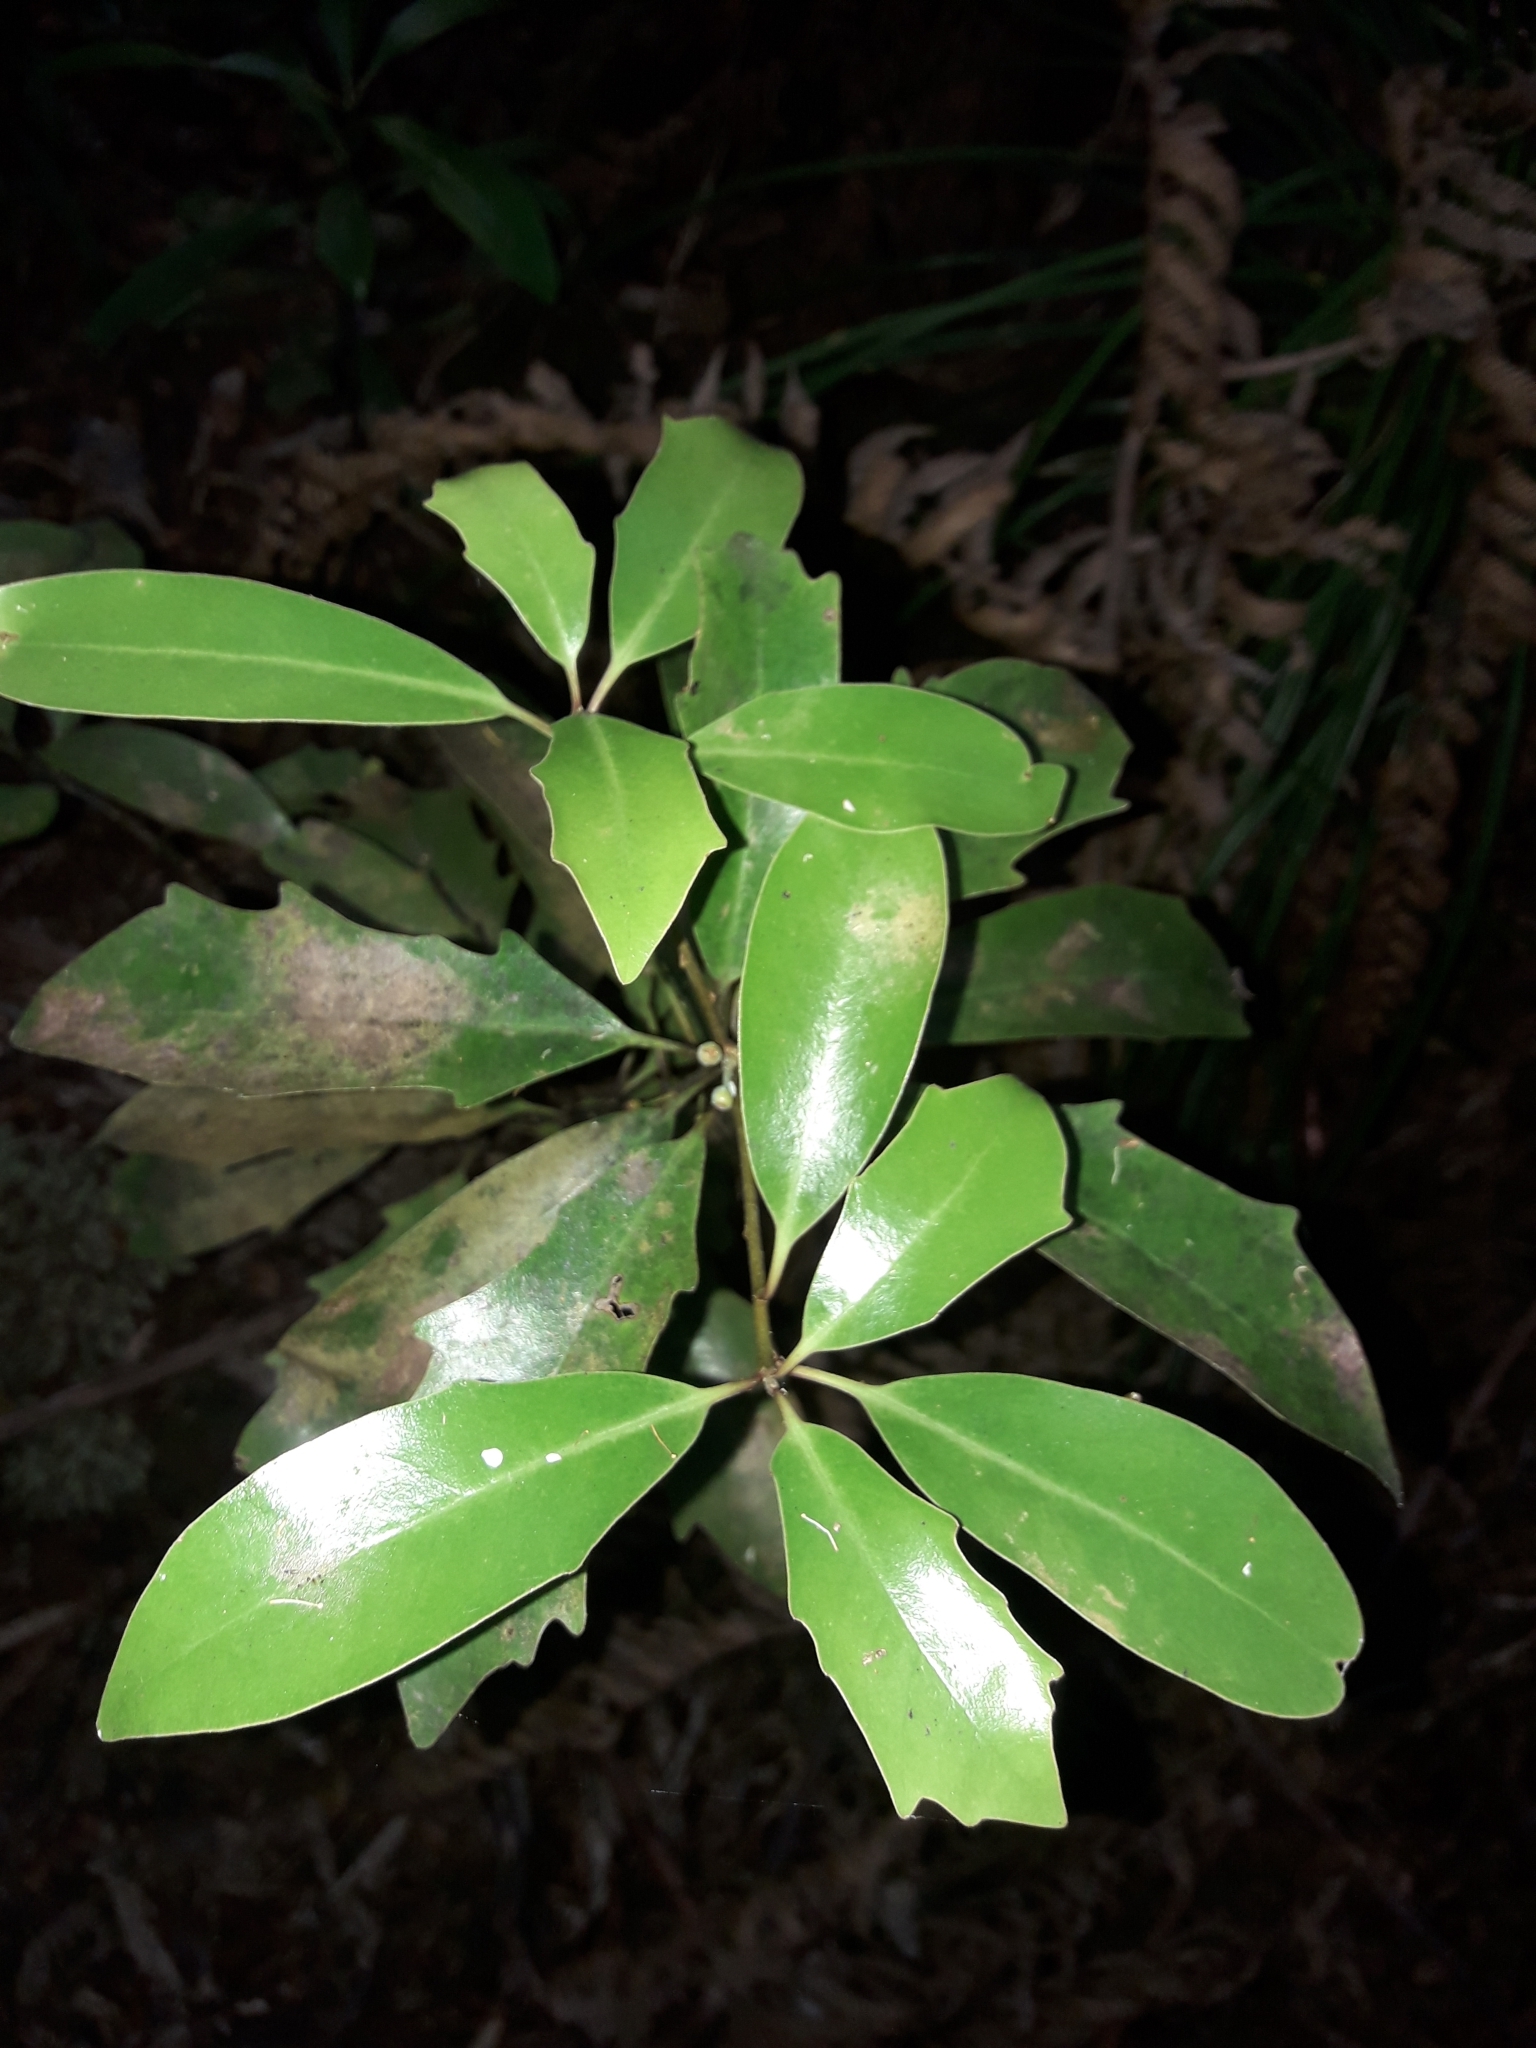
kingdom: Plantae
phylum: Tracheophyta
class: Magnoliopsida
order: Asterales
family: Alseuosmiaceae
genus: Alseuosmia
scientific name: Alseuosmia quercifolia
